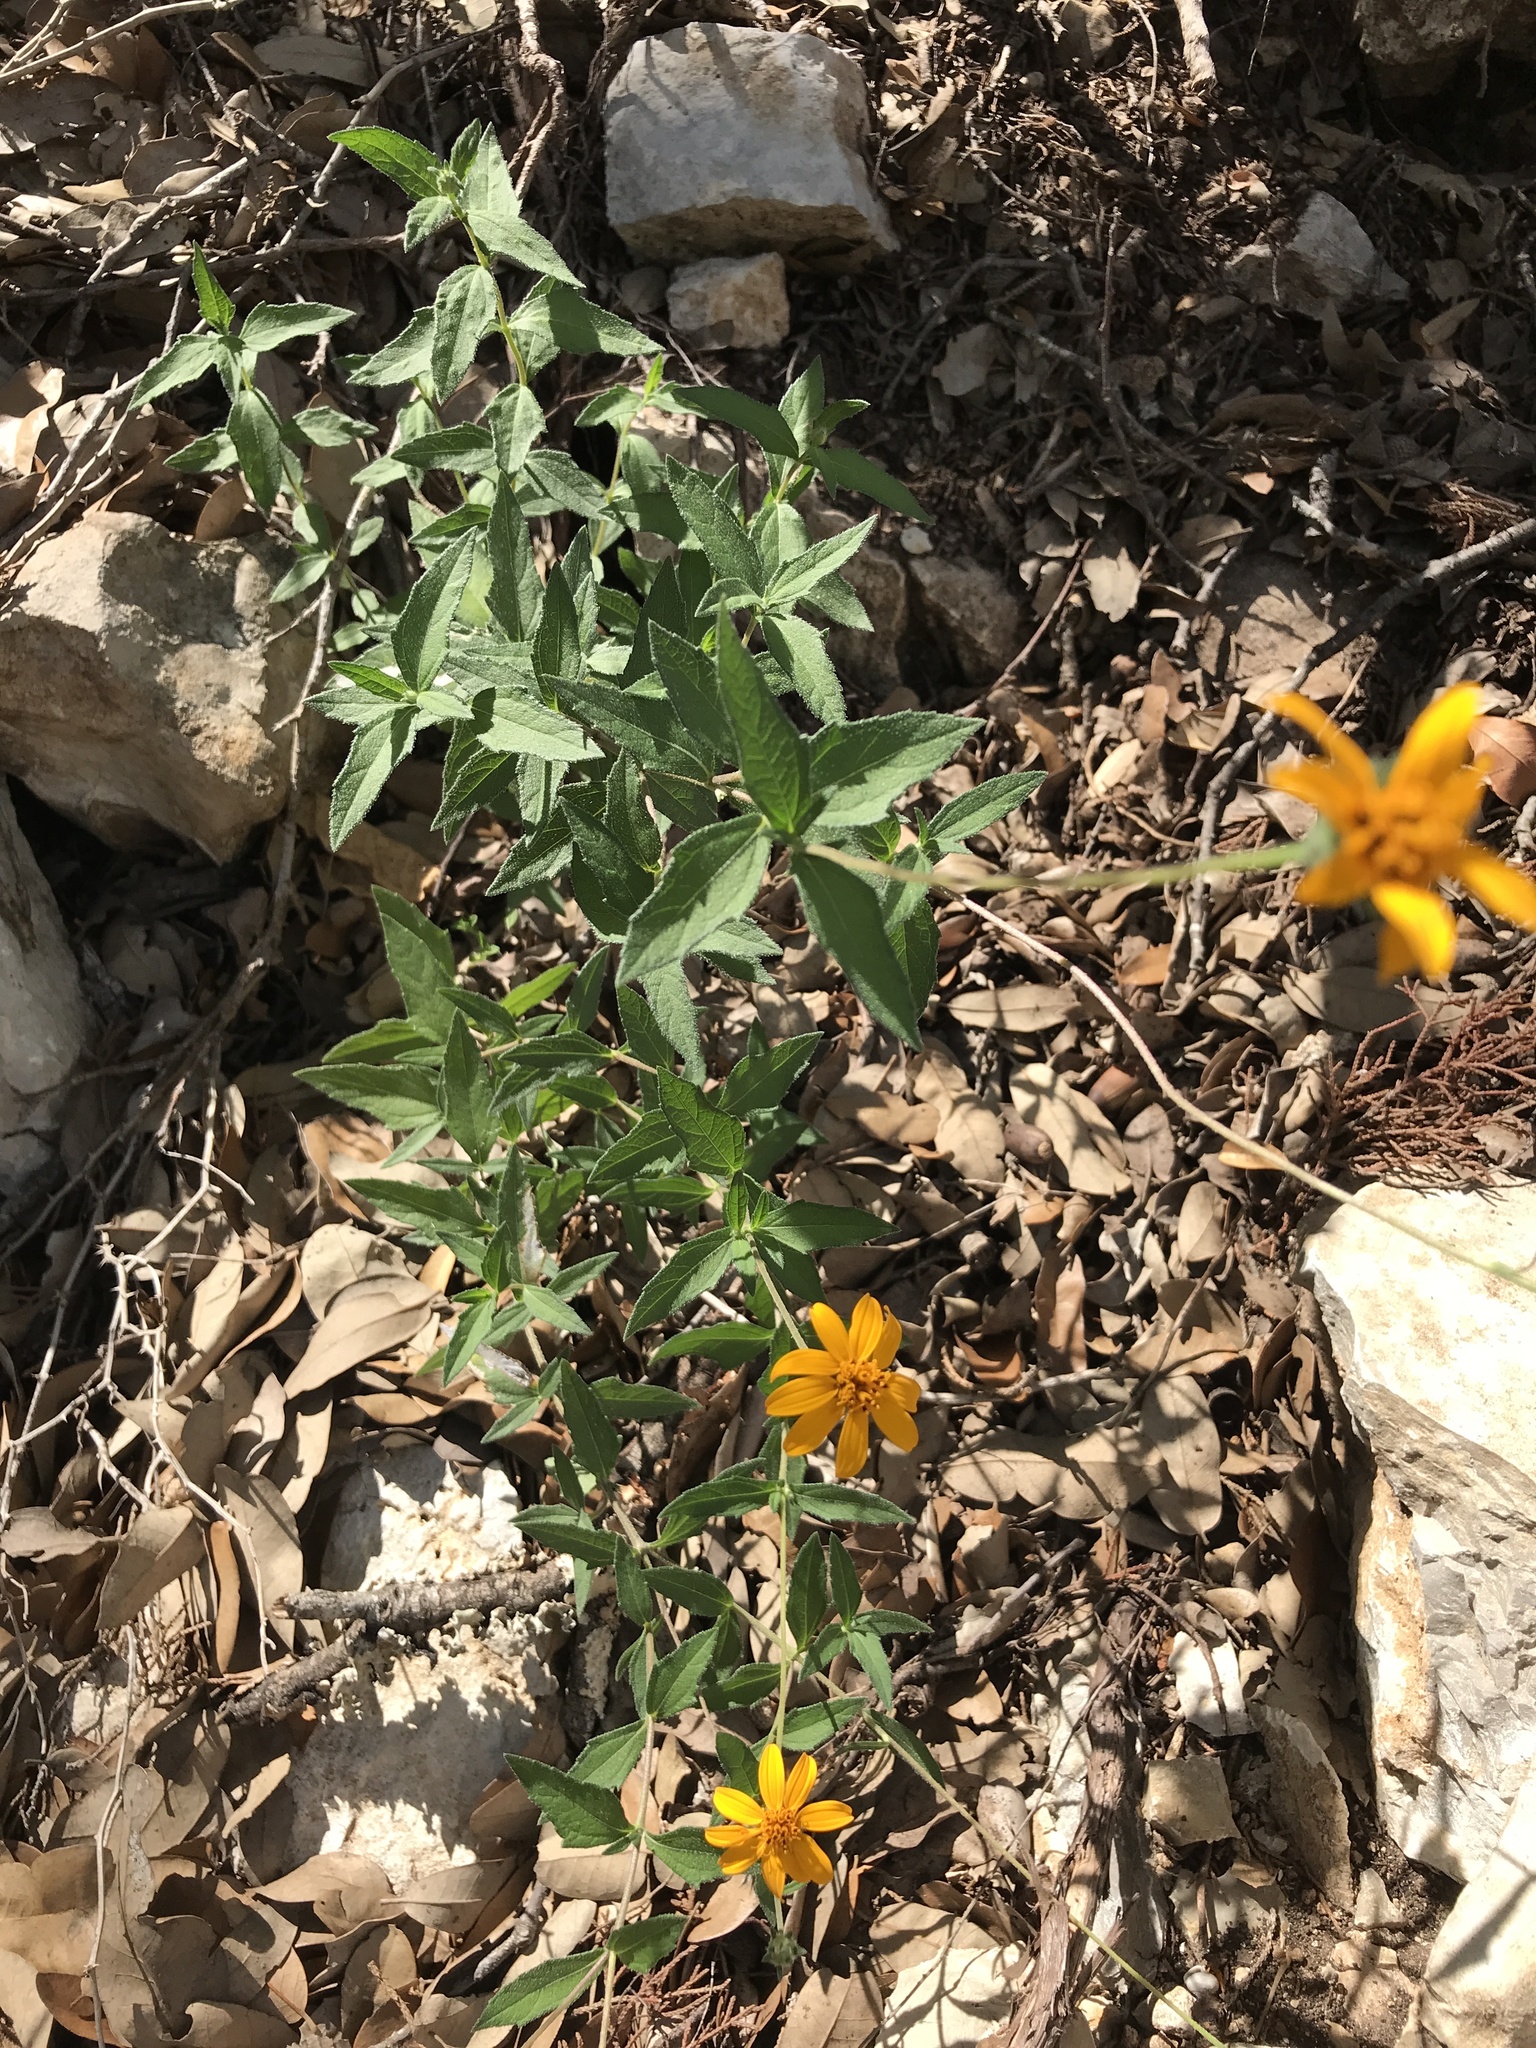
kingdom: Plantae
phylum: Tracheophyta
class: Magnoliopsida
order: Asterales
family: Asteraceae
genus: Wedelia
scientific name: Wedelia acapulcensis
